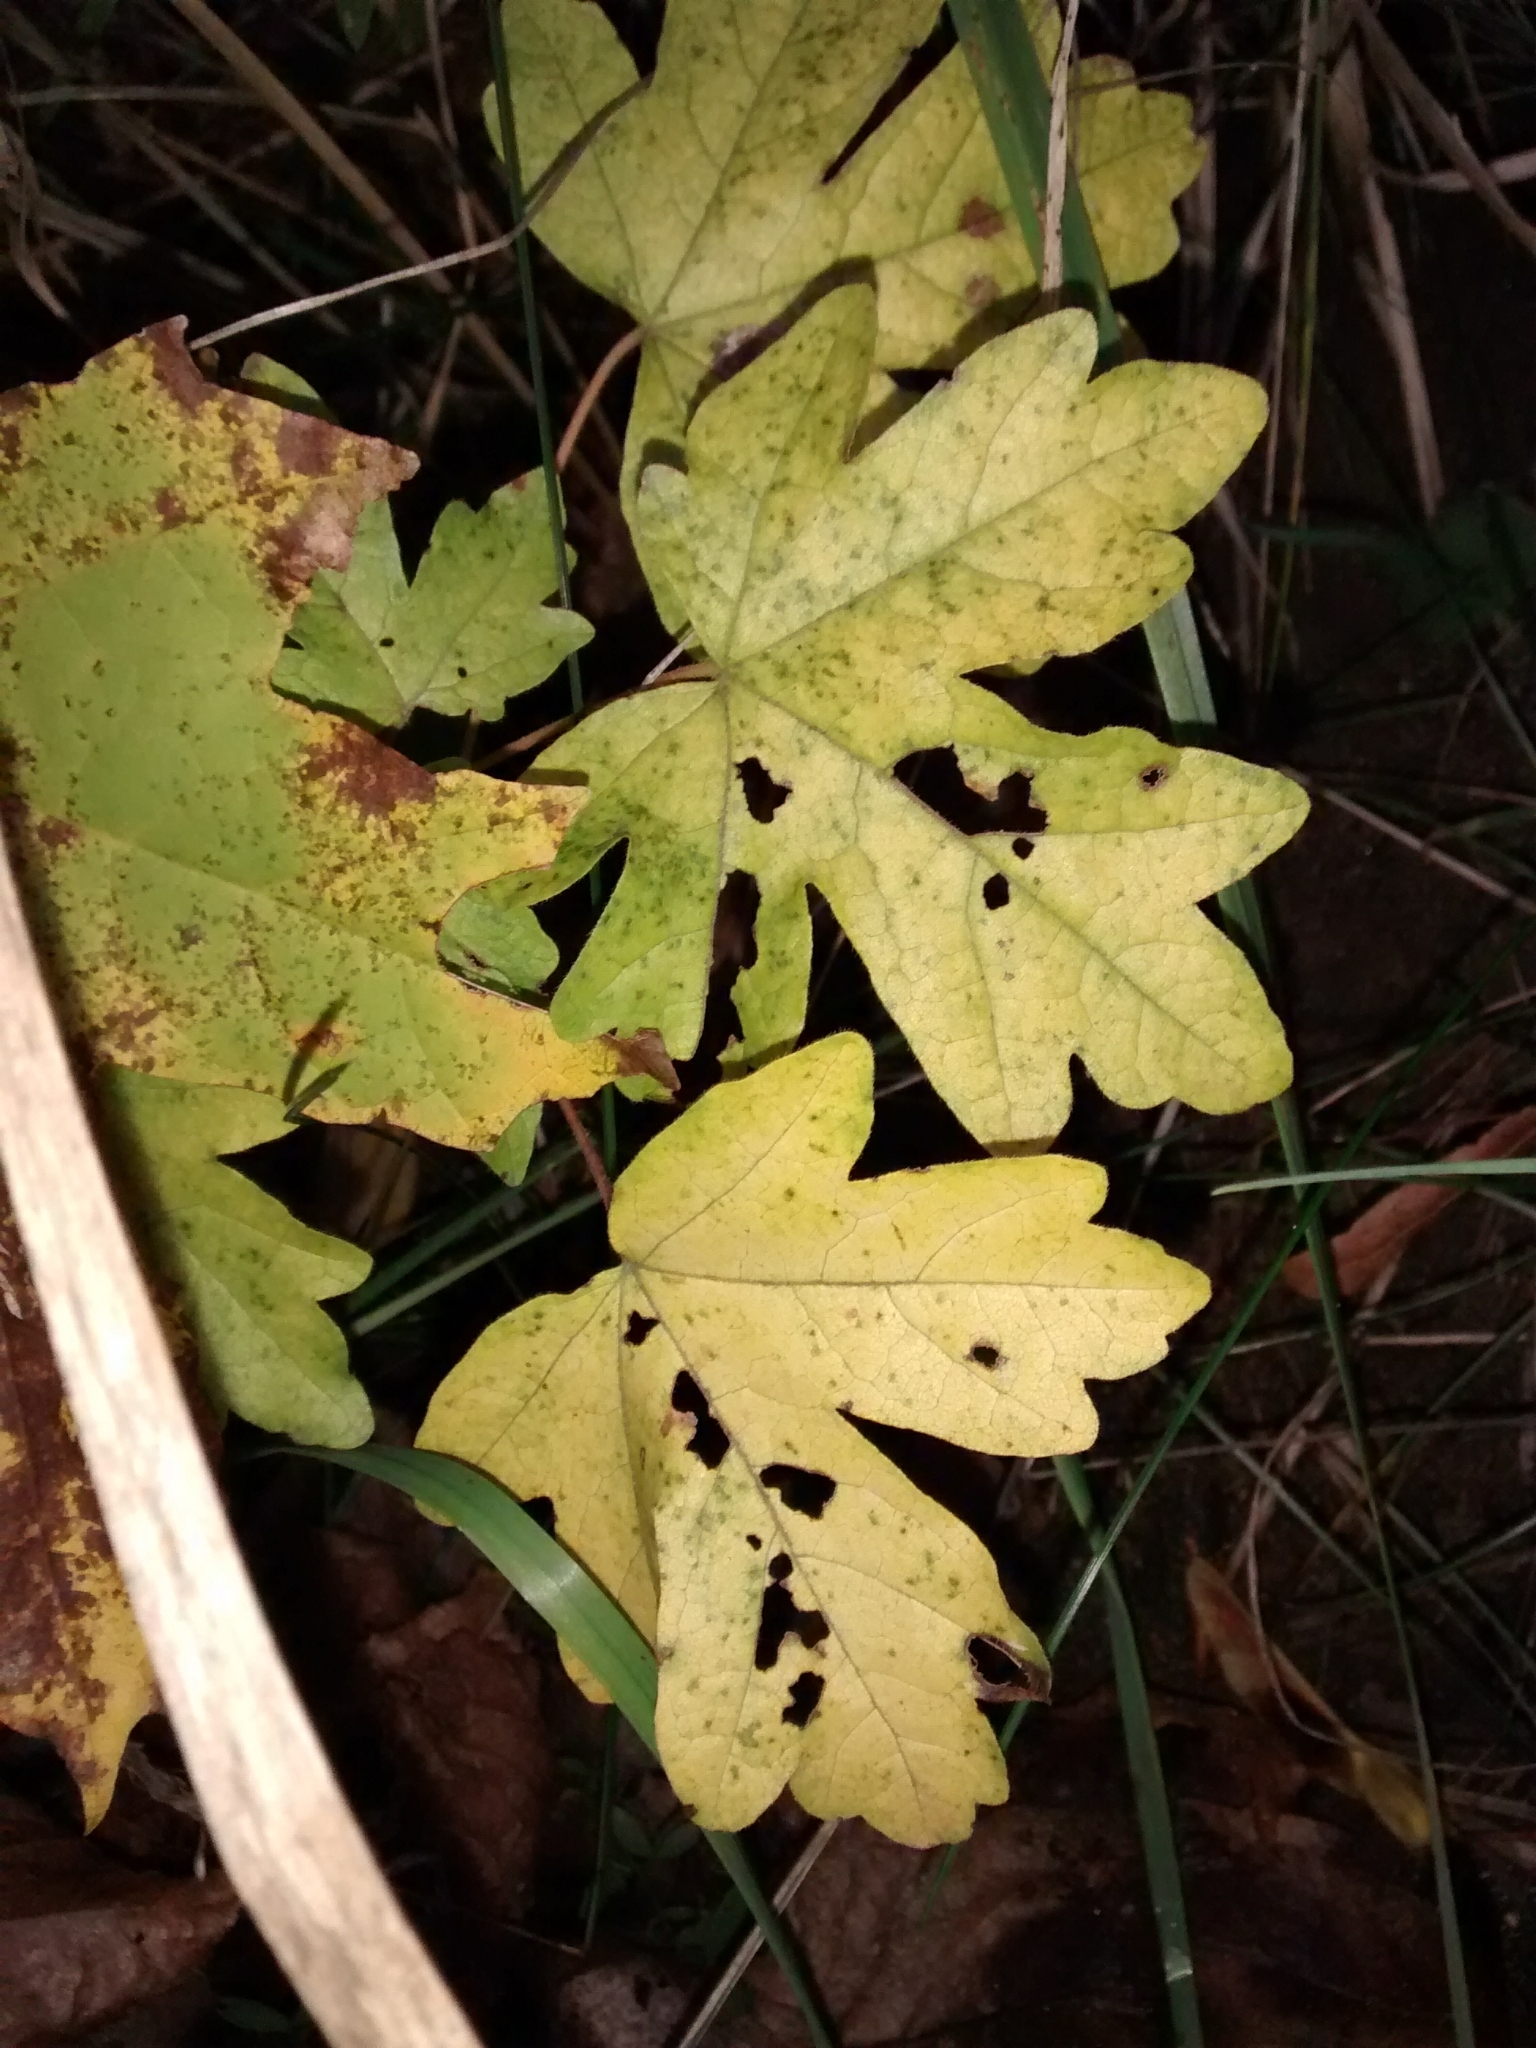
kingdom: Plantae
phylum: Tracheophyta
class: Magnoliopsida
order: Sapindales
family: Sapindaceae
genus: Acer
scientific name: Acer campestre
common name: Field maple
